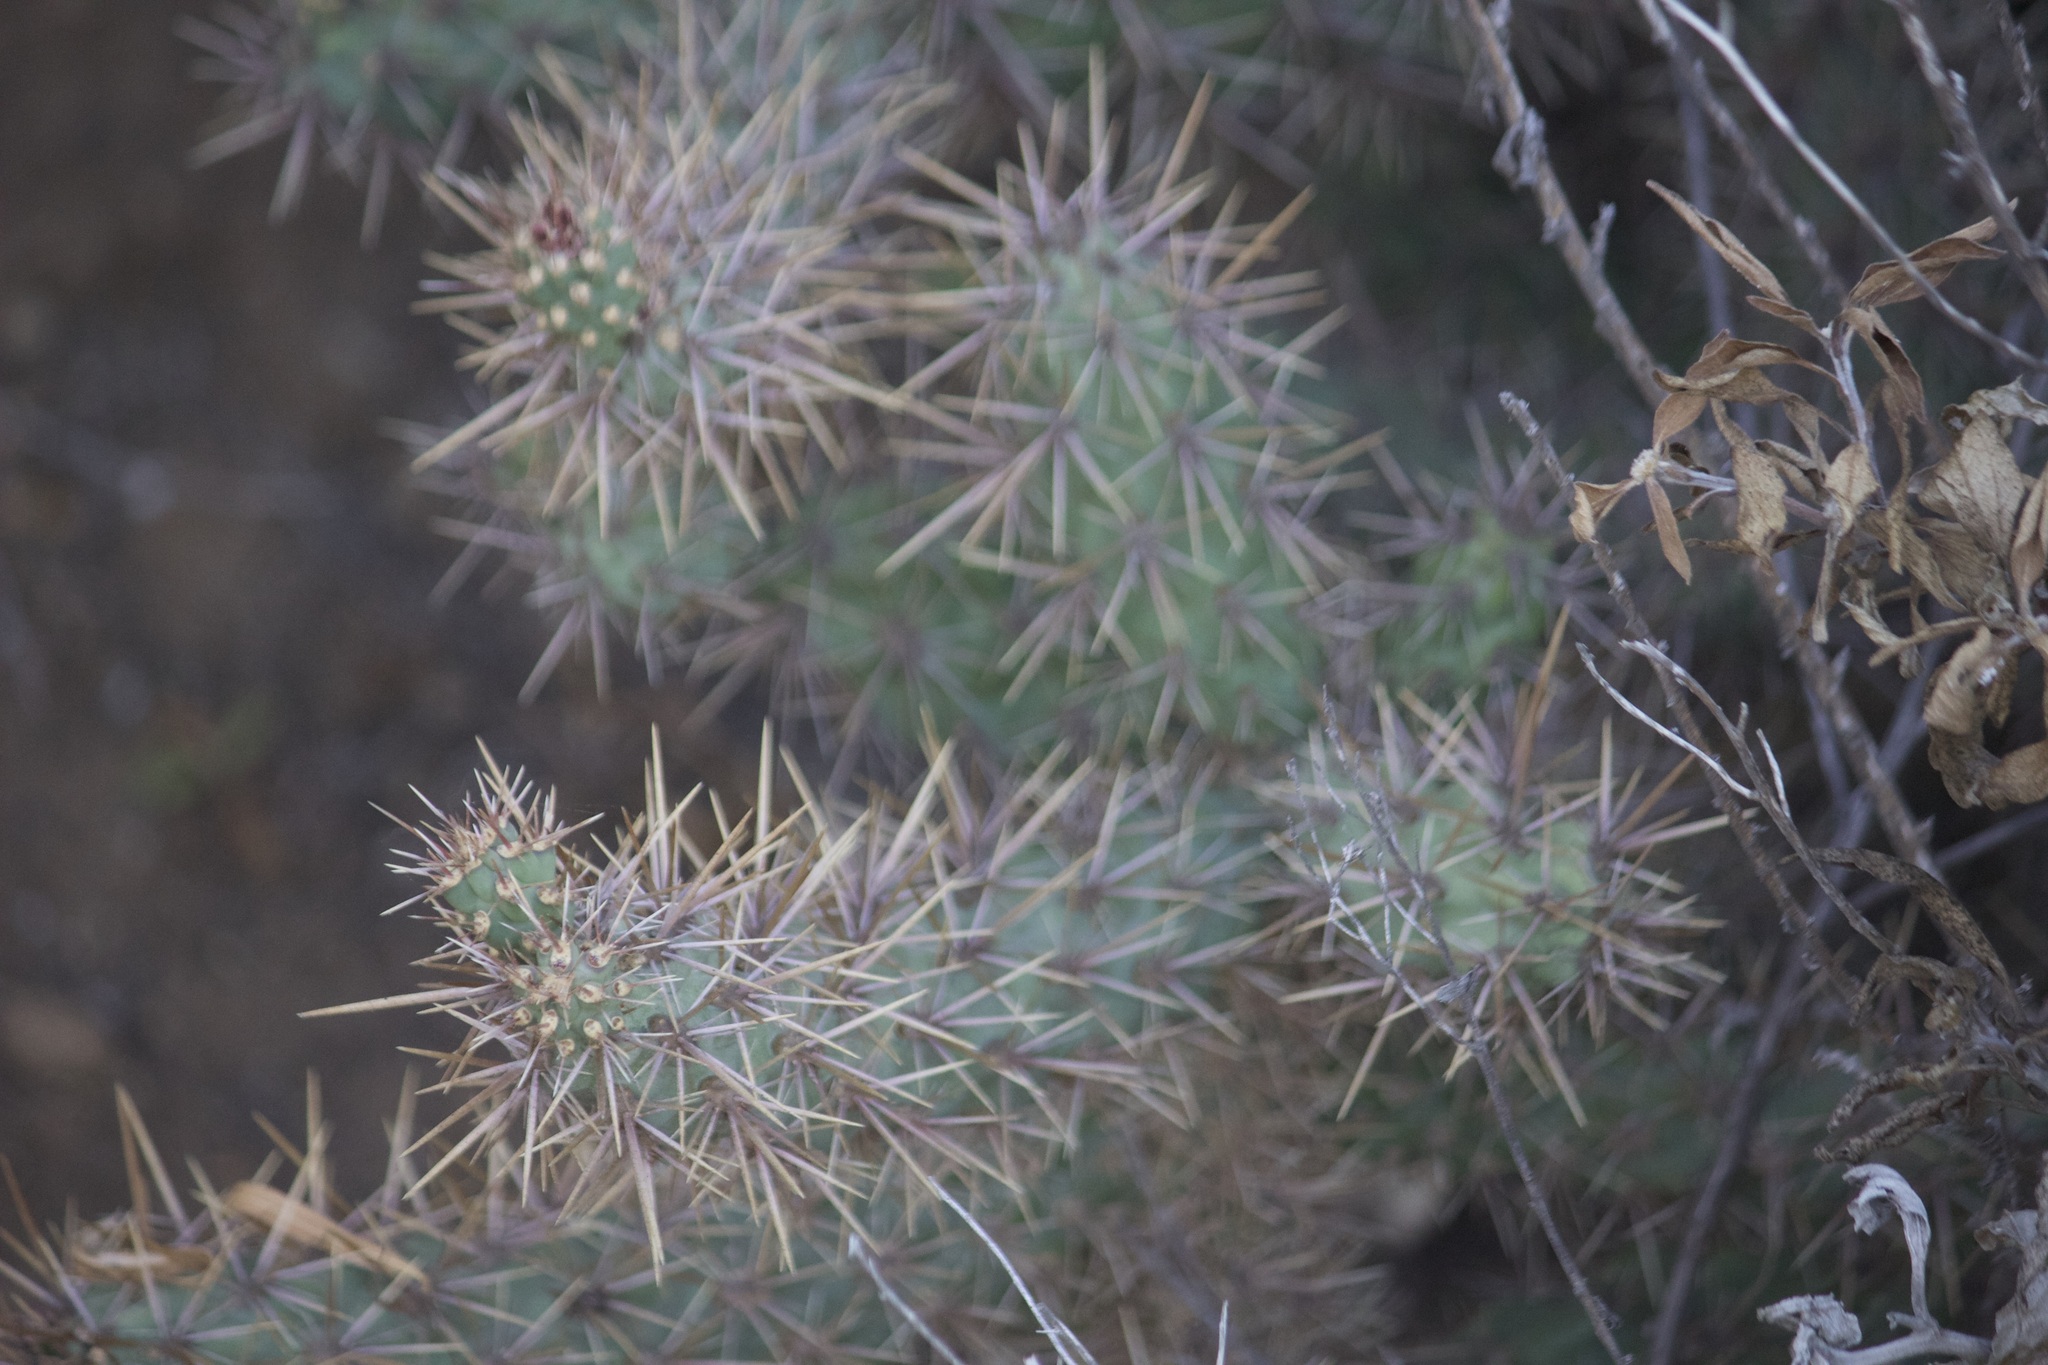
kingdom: Plantae
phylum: Tracheophyta
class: Magnoliopsida
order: Caryophyllales
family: Cactaceae
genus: Cylindropuntia
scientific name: Cylindropuntia prolifera
